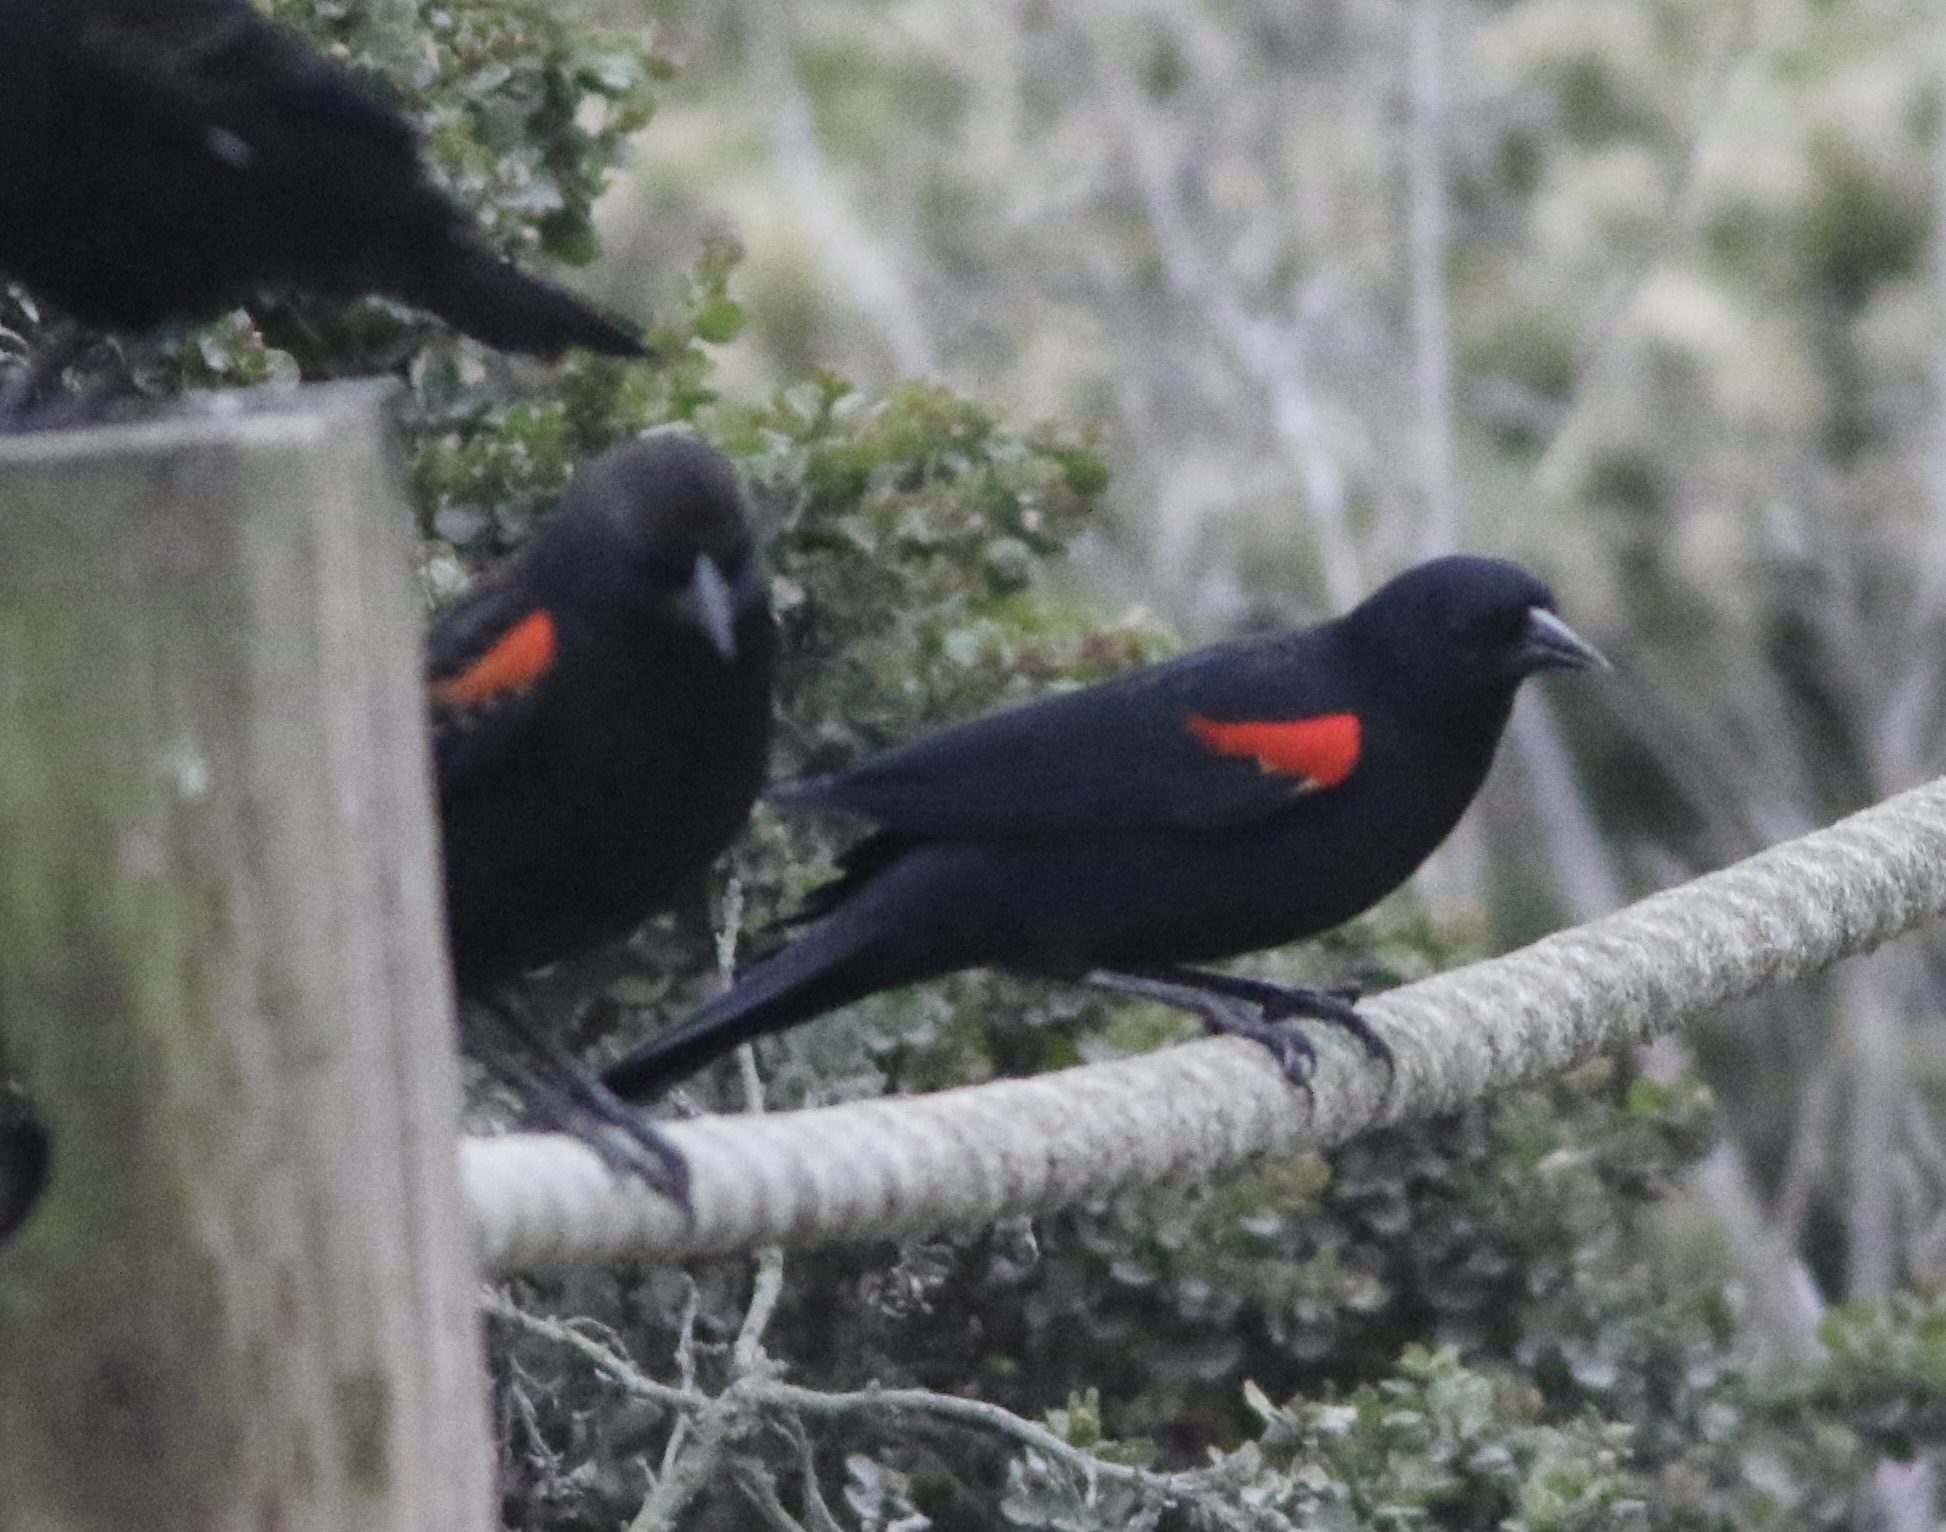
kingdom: Animalia
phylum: Chordata
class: Aves
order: Passeriformes
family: Icteridae
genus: Agelaius
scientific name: Agelaius phoeniceus
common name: Red-winged blackbird
